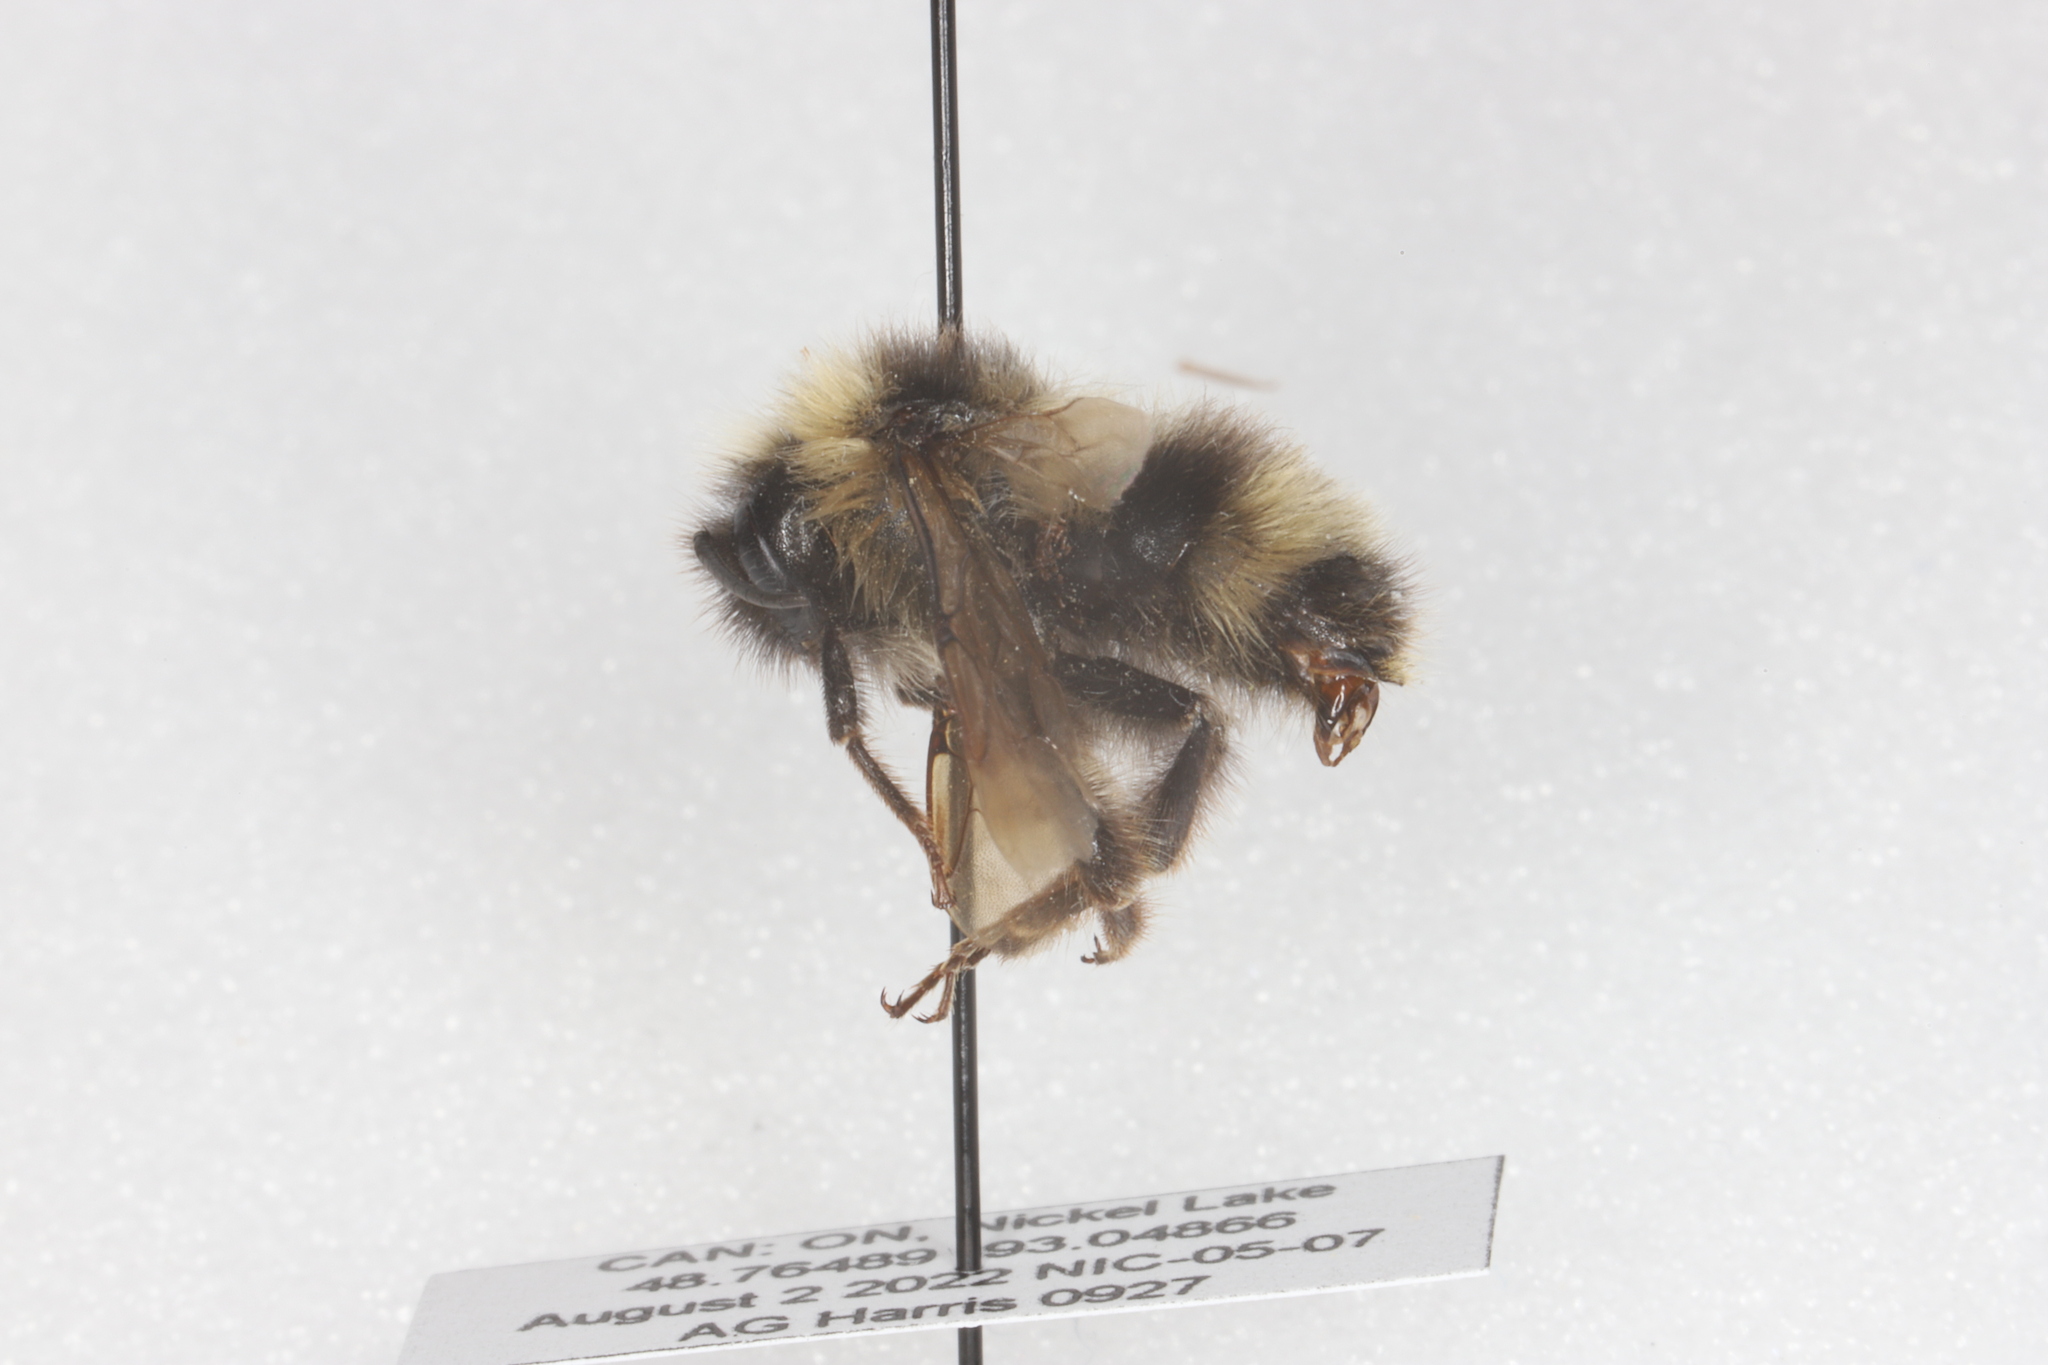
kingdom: Animalia
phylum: Arthropoda
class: Insecta
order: Hymenoptera
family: Apidae
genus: Bombus
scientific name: Bombus flavidus
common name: Fernald cuckoo bumble bee
